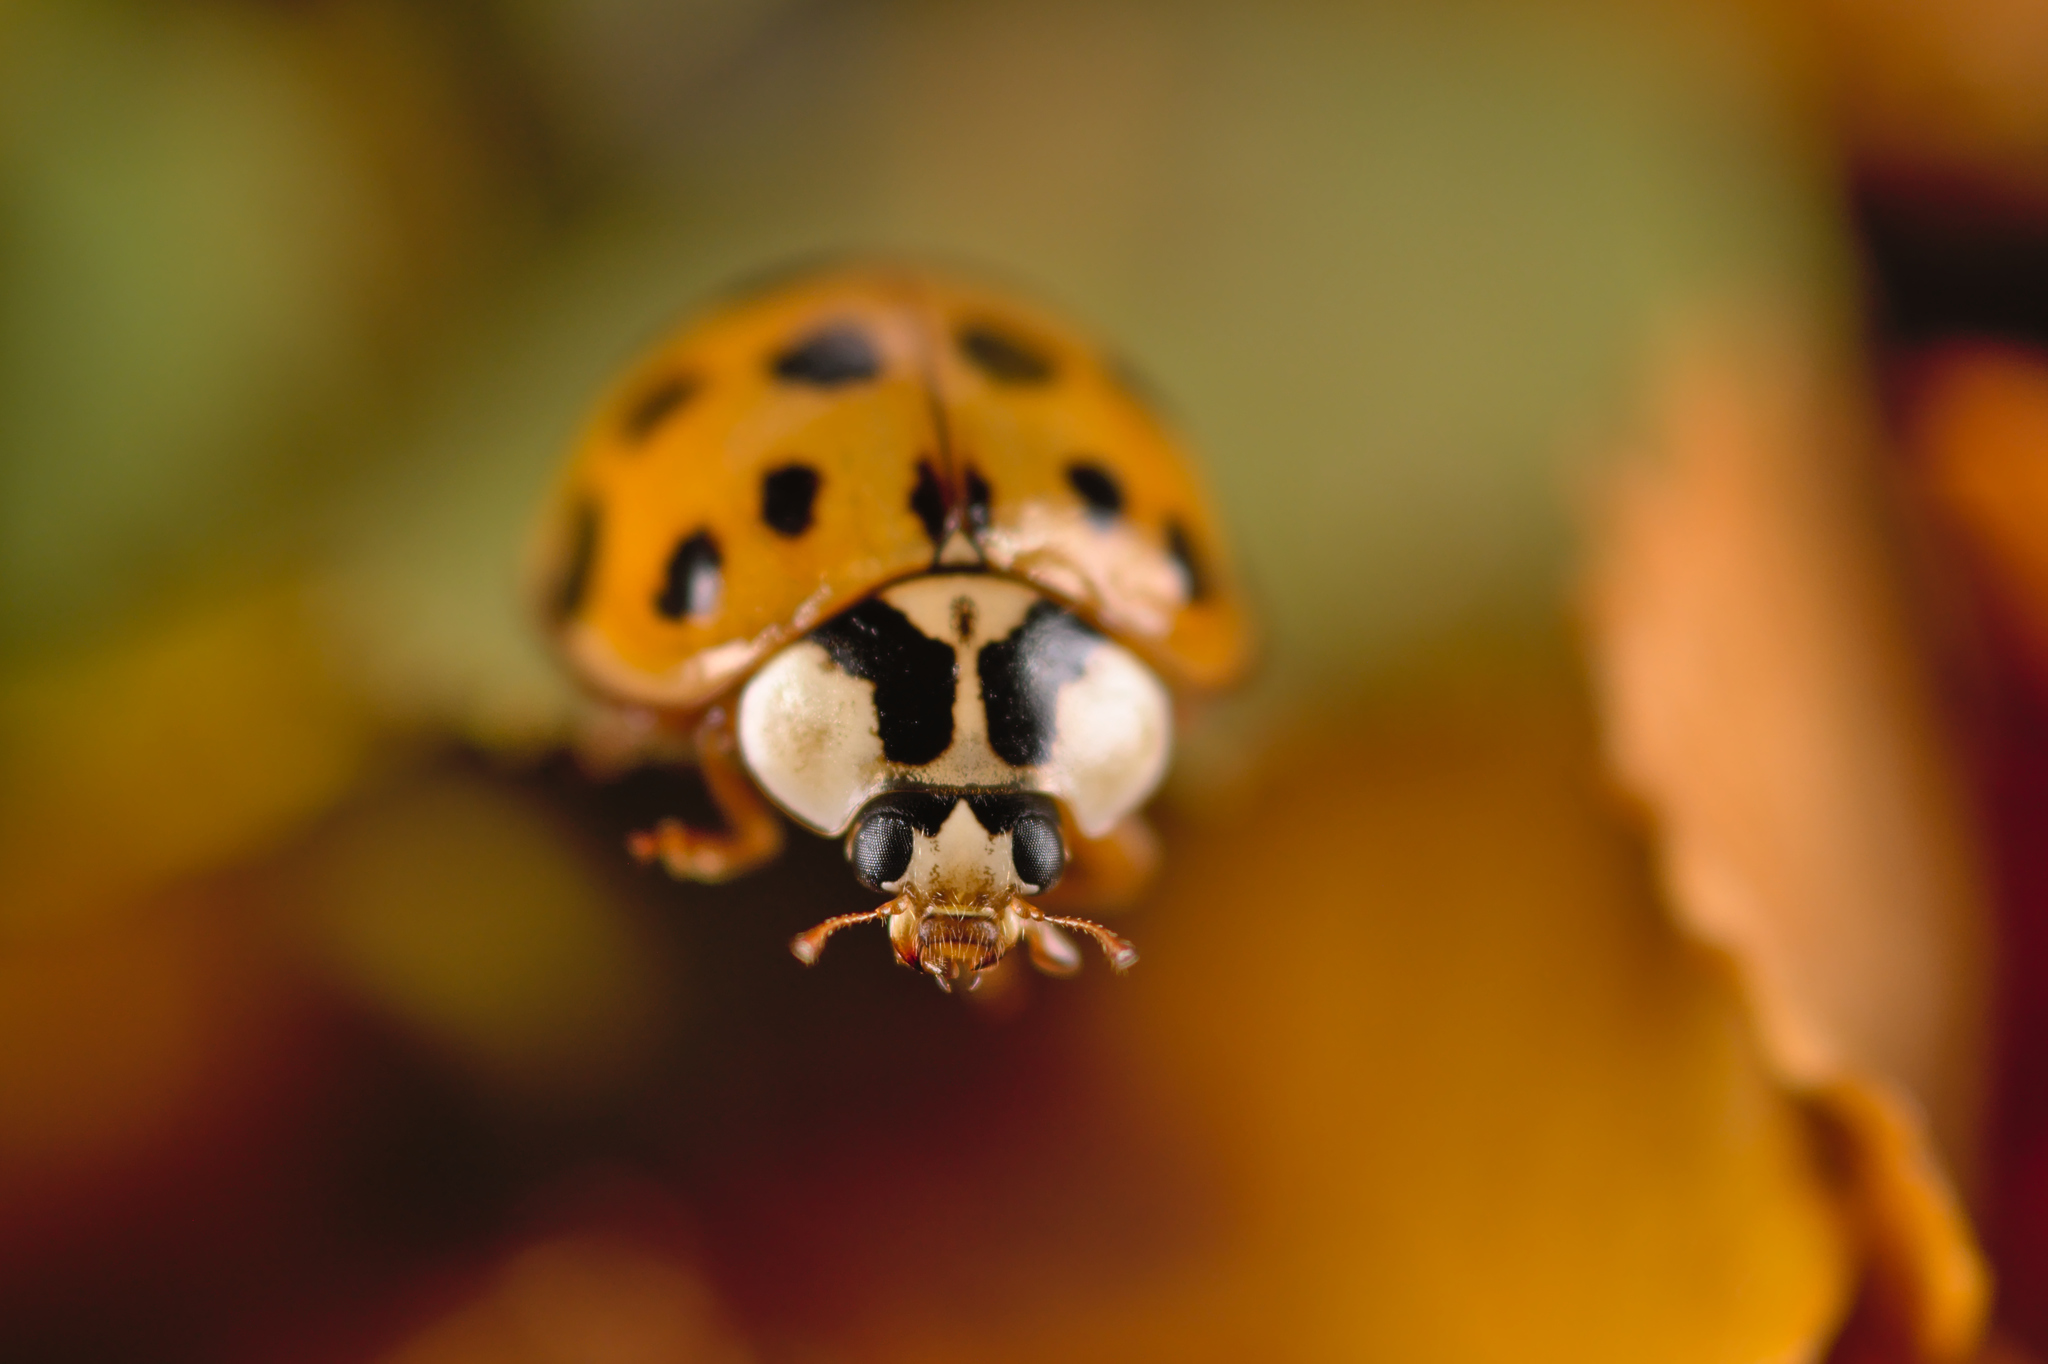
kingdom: Animalia
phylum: Arthropoda
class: Insecta
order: Coleoptera
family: Coccinellidae
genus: Harmonia
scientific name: Harmonia axyridis
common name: Harlequin ladybird
